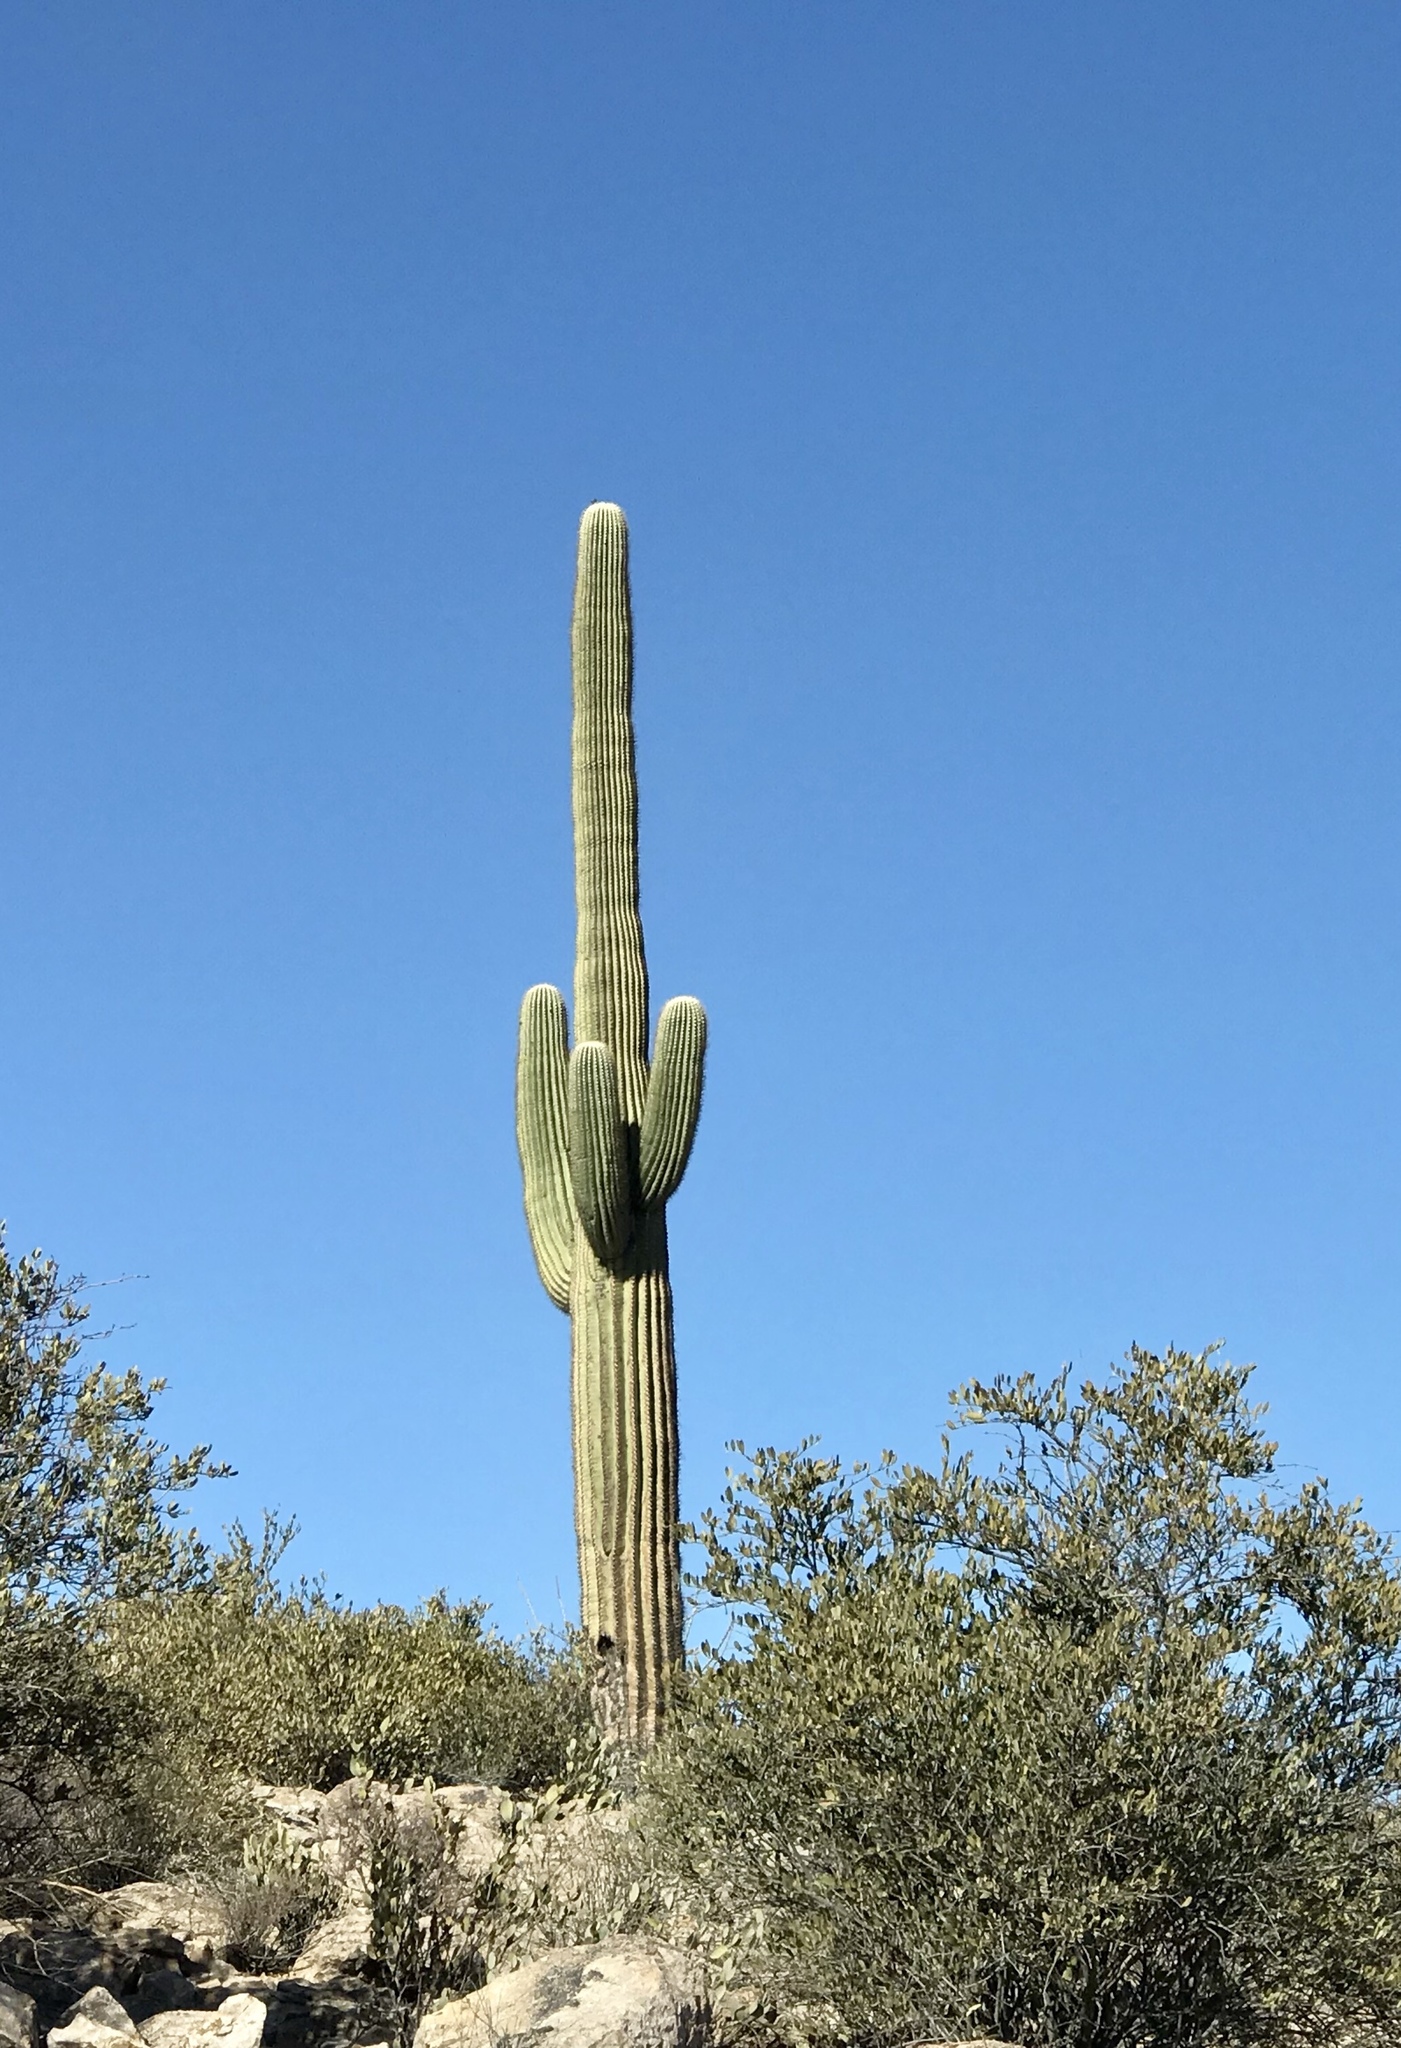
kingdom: Plantae
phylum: Tracheophyta
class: Magnoliopsida
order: Caryophyllales
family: Cactaceae
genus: Carnegiea
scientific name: Carnegiea gigantea
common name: Saguaro
